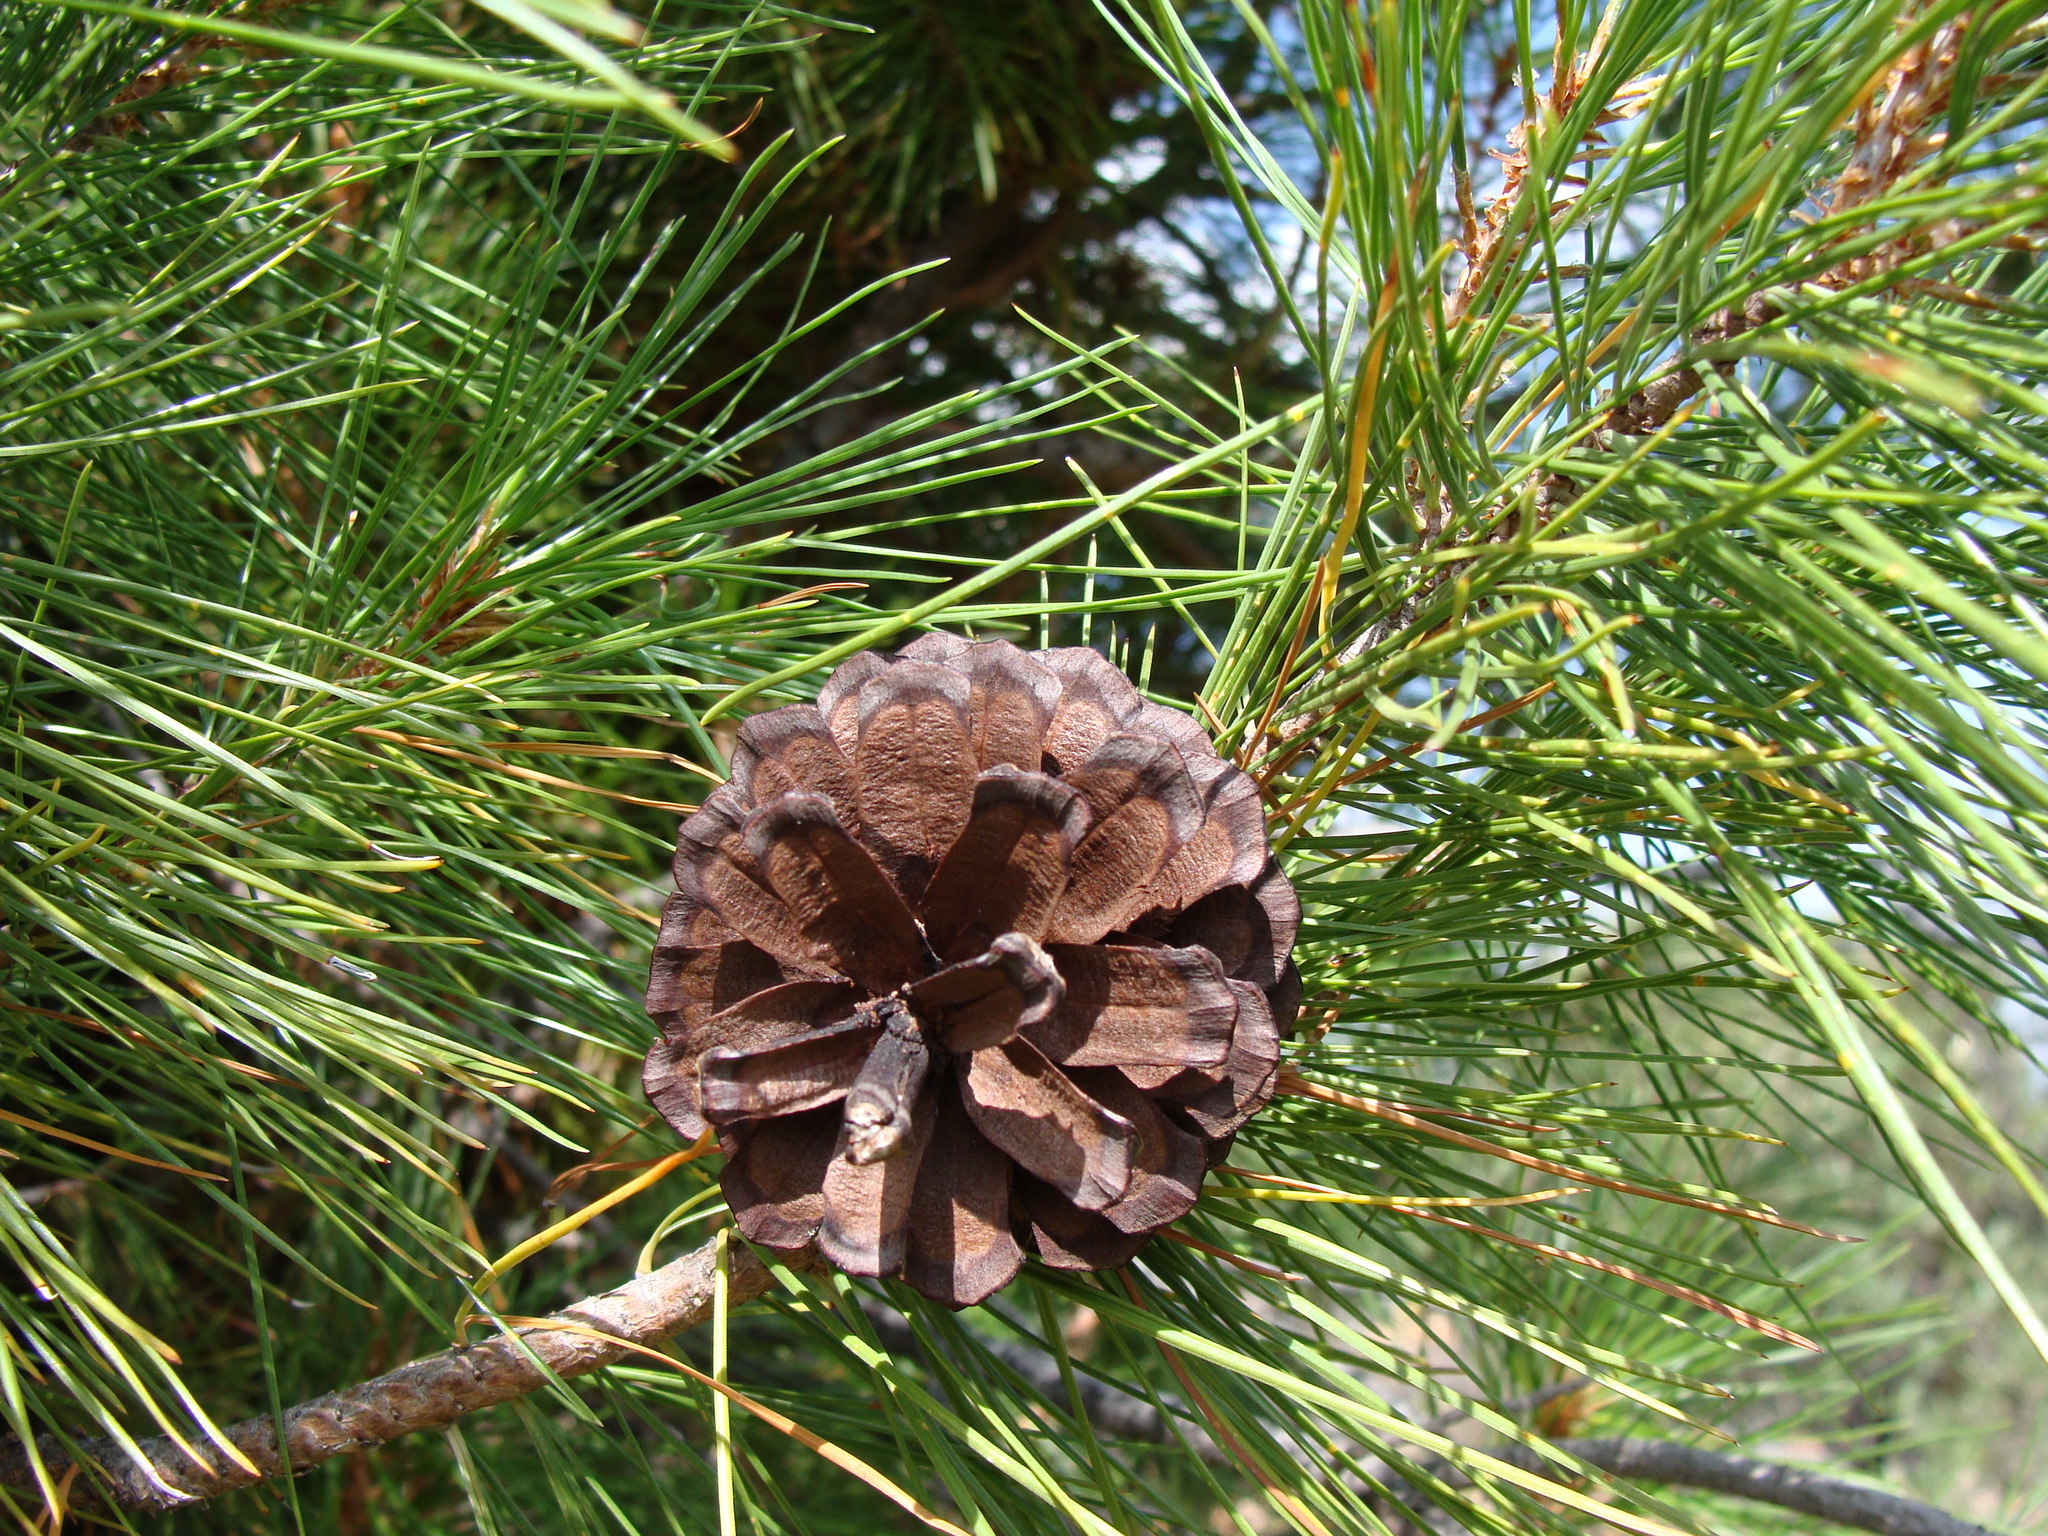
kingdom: Plantae
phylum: Tracheophyta
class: Pinopsida
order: Pinales
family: Pinaceae
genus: Pinus
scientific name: Pinus leiophylla
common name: Chihuahua pine
